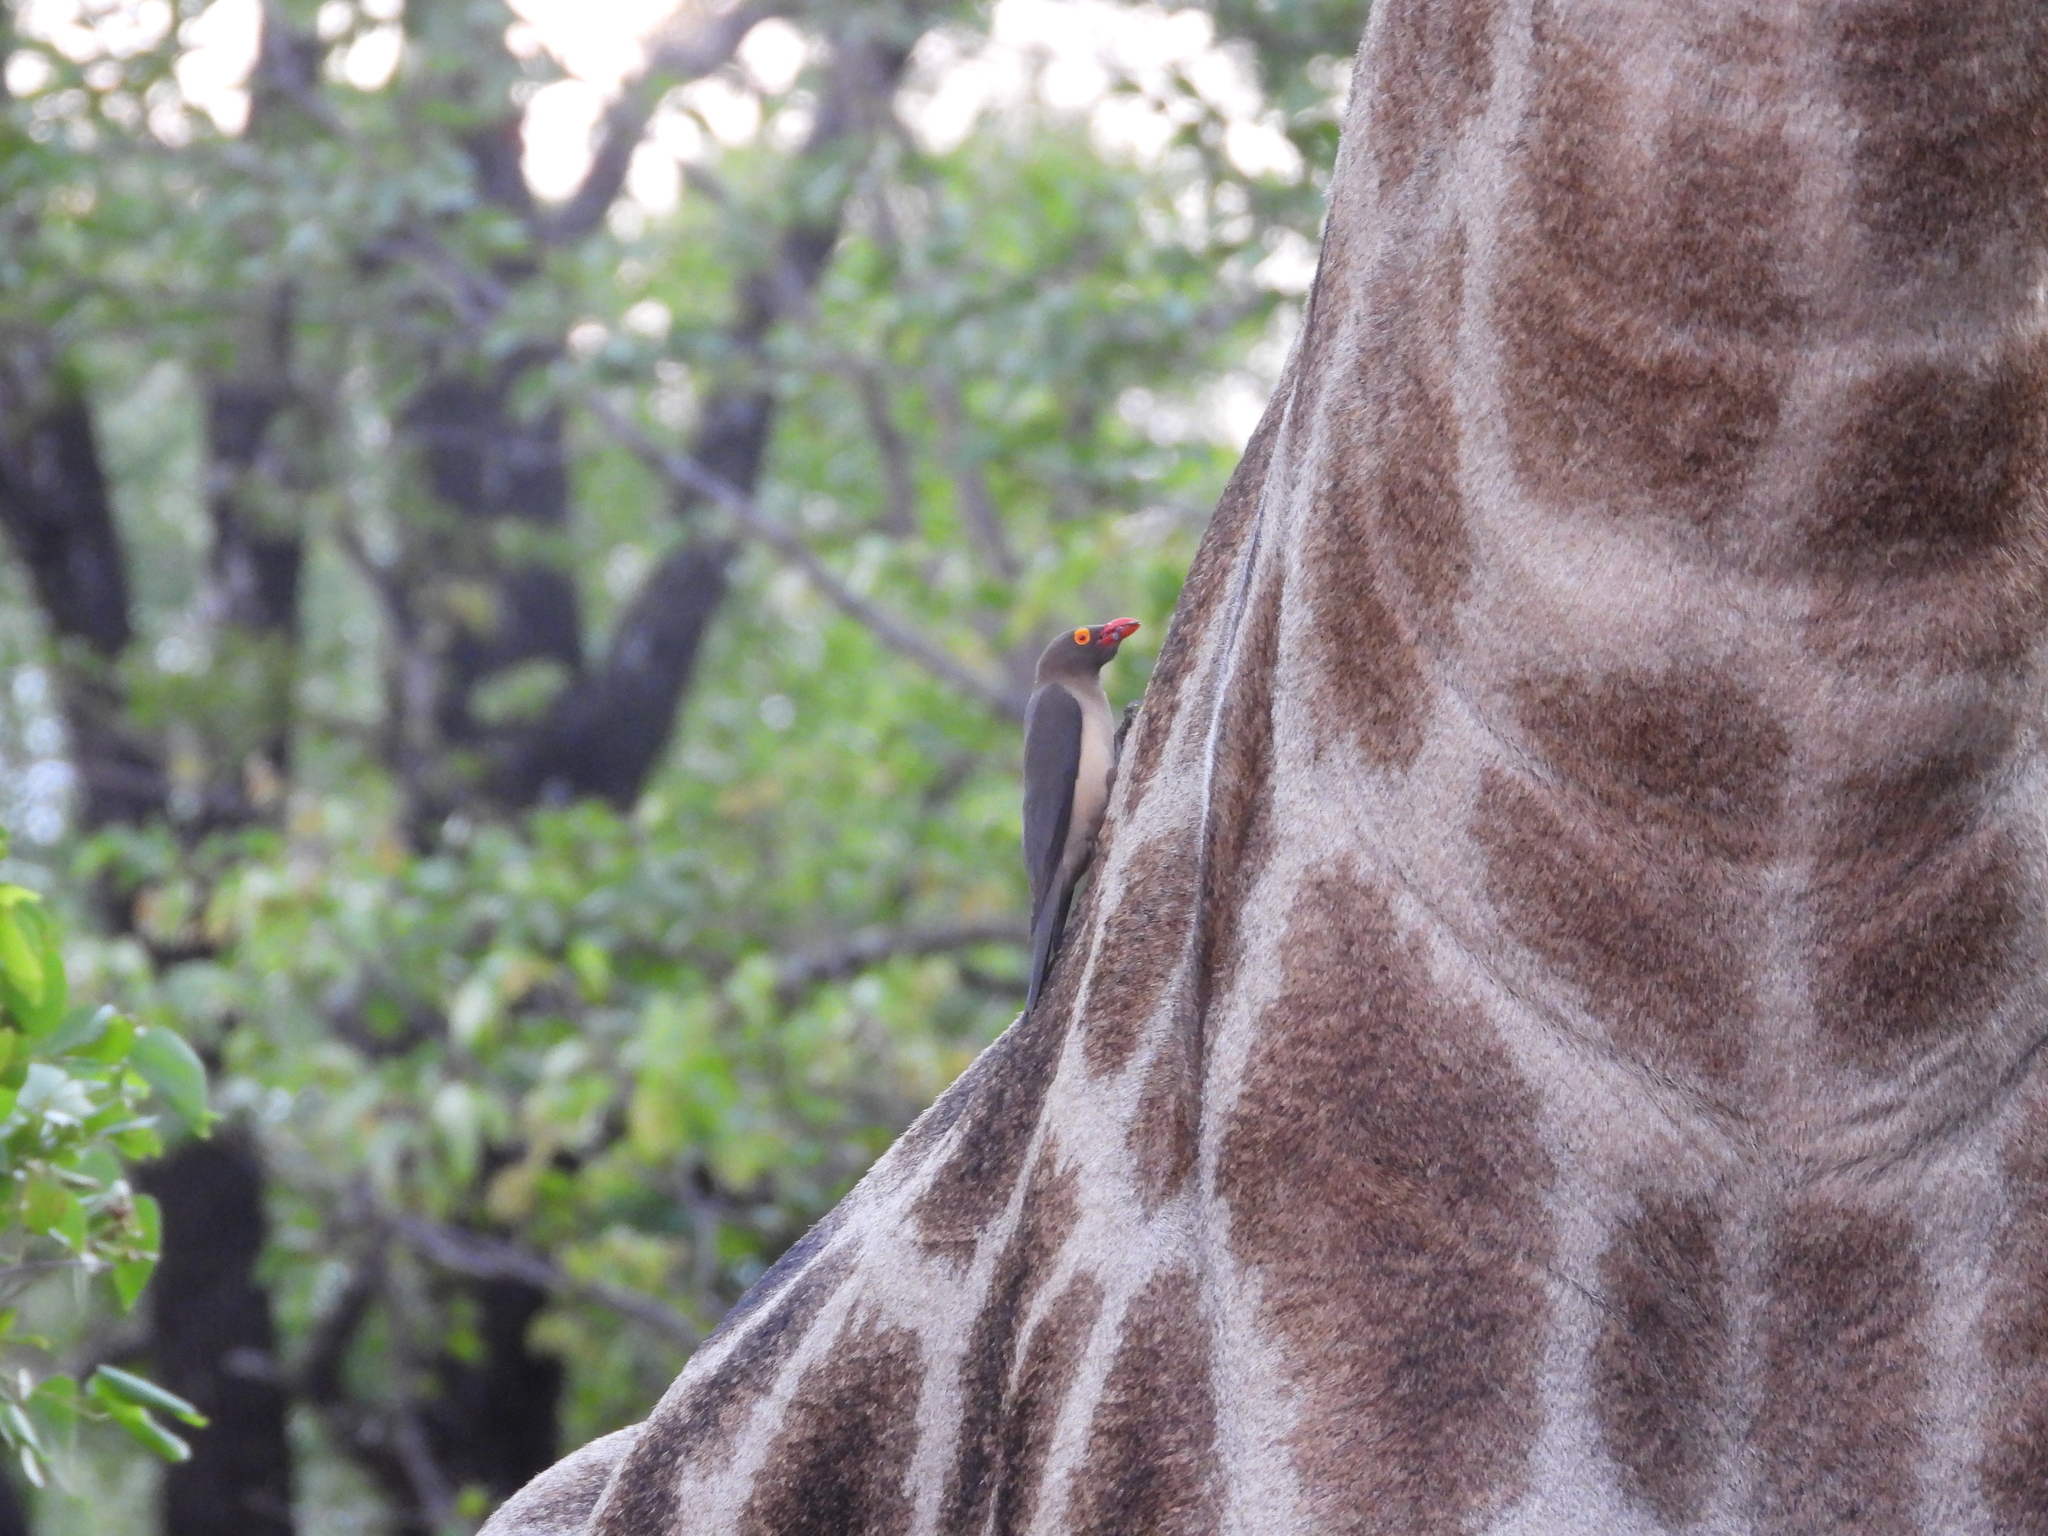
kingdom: Animalia
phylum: Chordata
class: Aves
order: Passeriformes
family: Buphagidae
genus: Buphagus
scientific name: Buphagus erythrorhynchus
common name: Red-billed oxpecker
